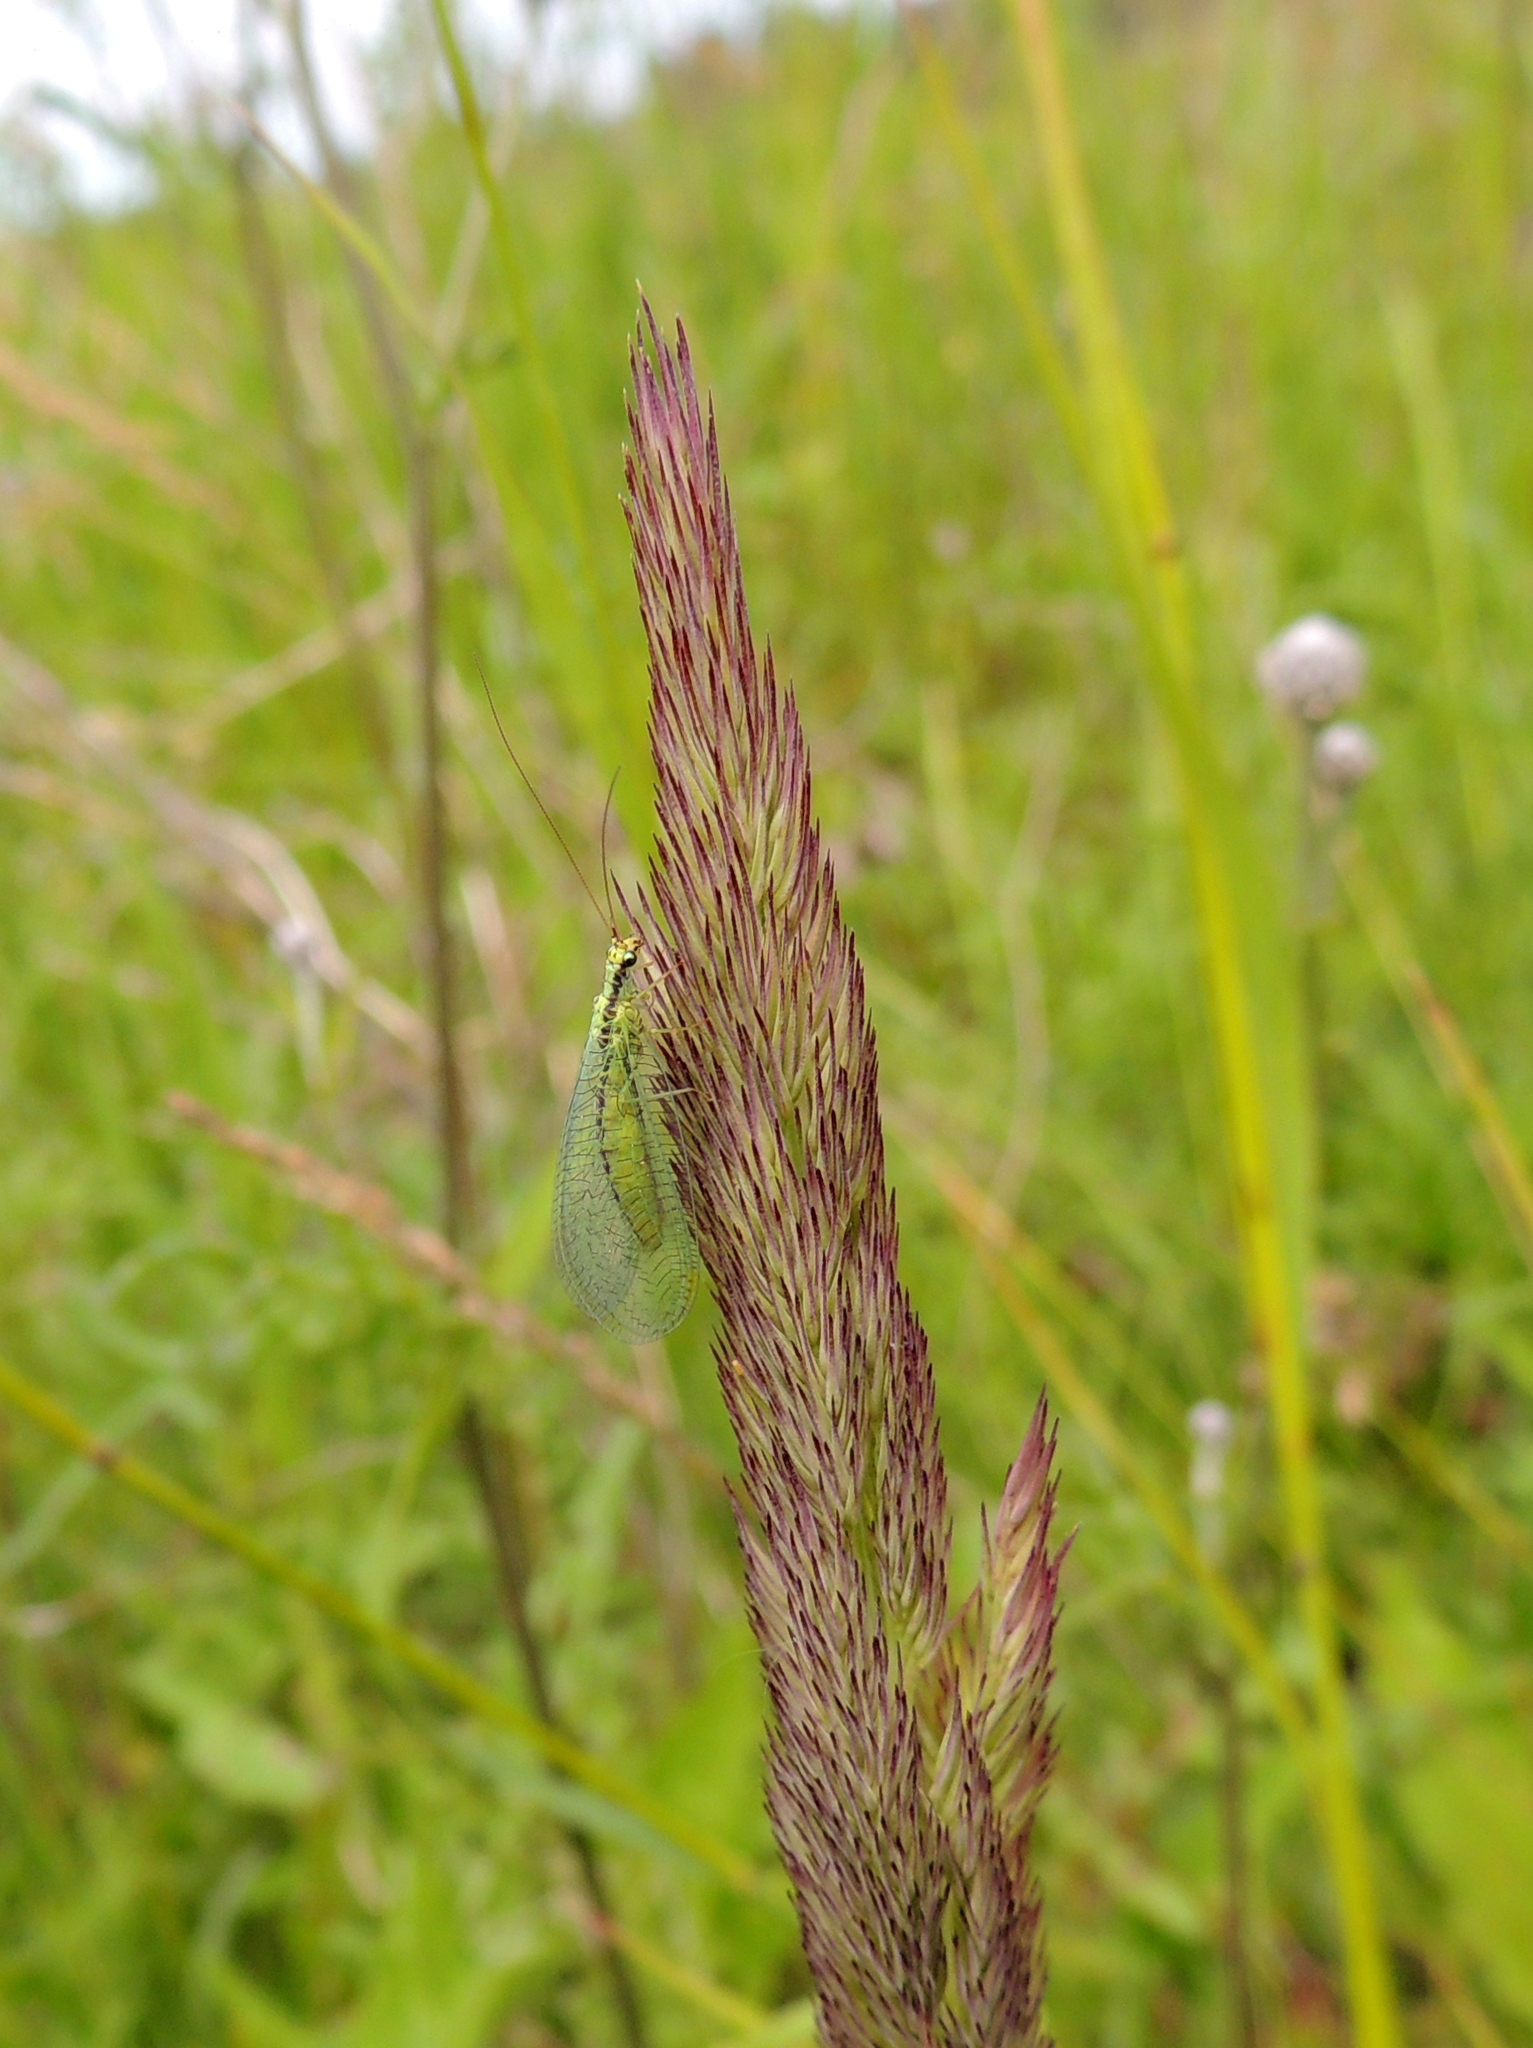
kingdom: Animalia
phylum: Arthropoda
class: Insecta
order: Neuroptera
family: Chrysopidae
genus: Chrysopa
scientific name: Chrysopa walkeri
